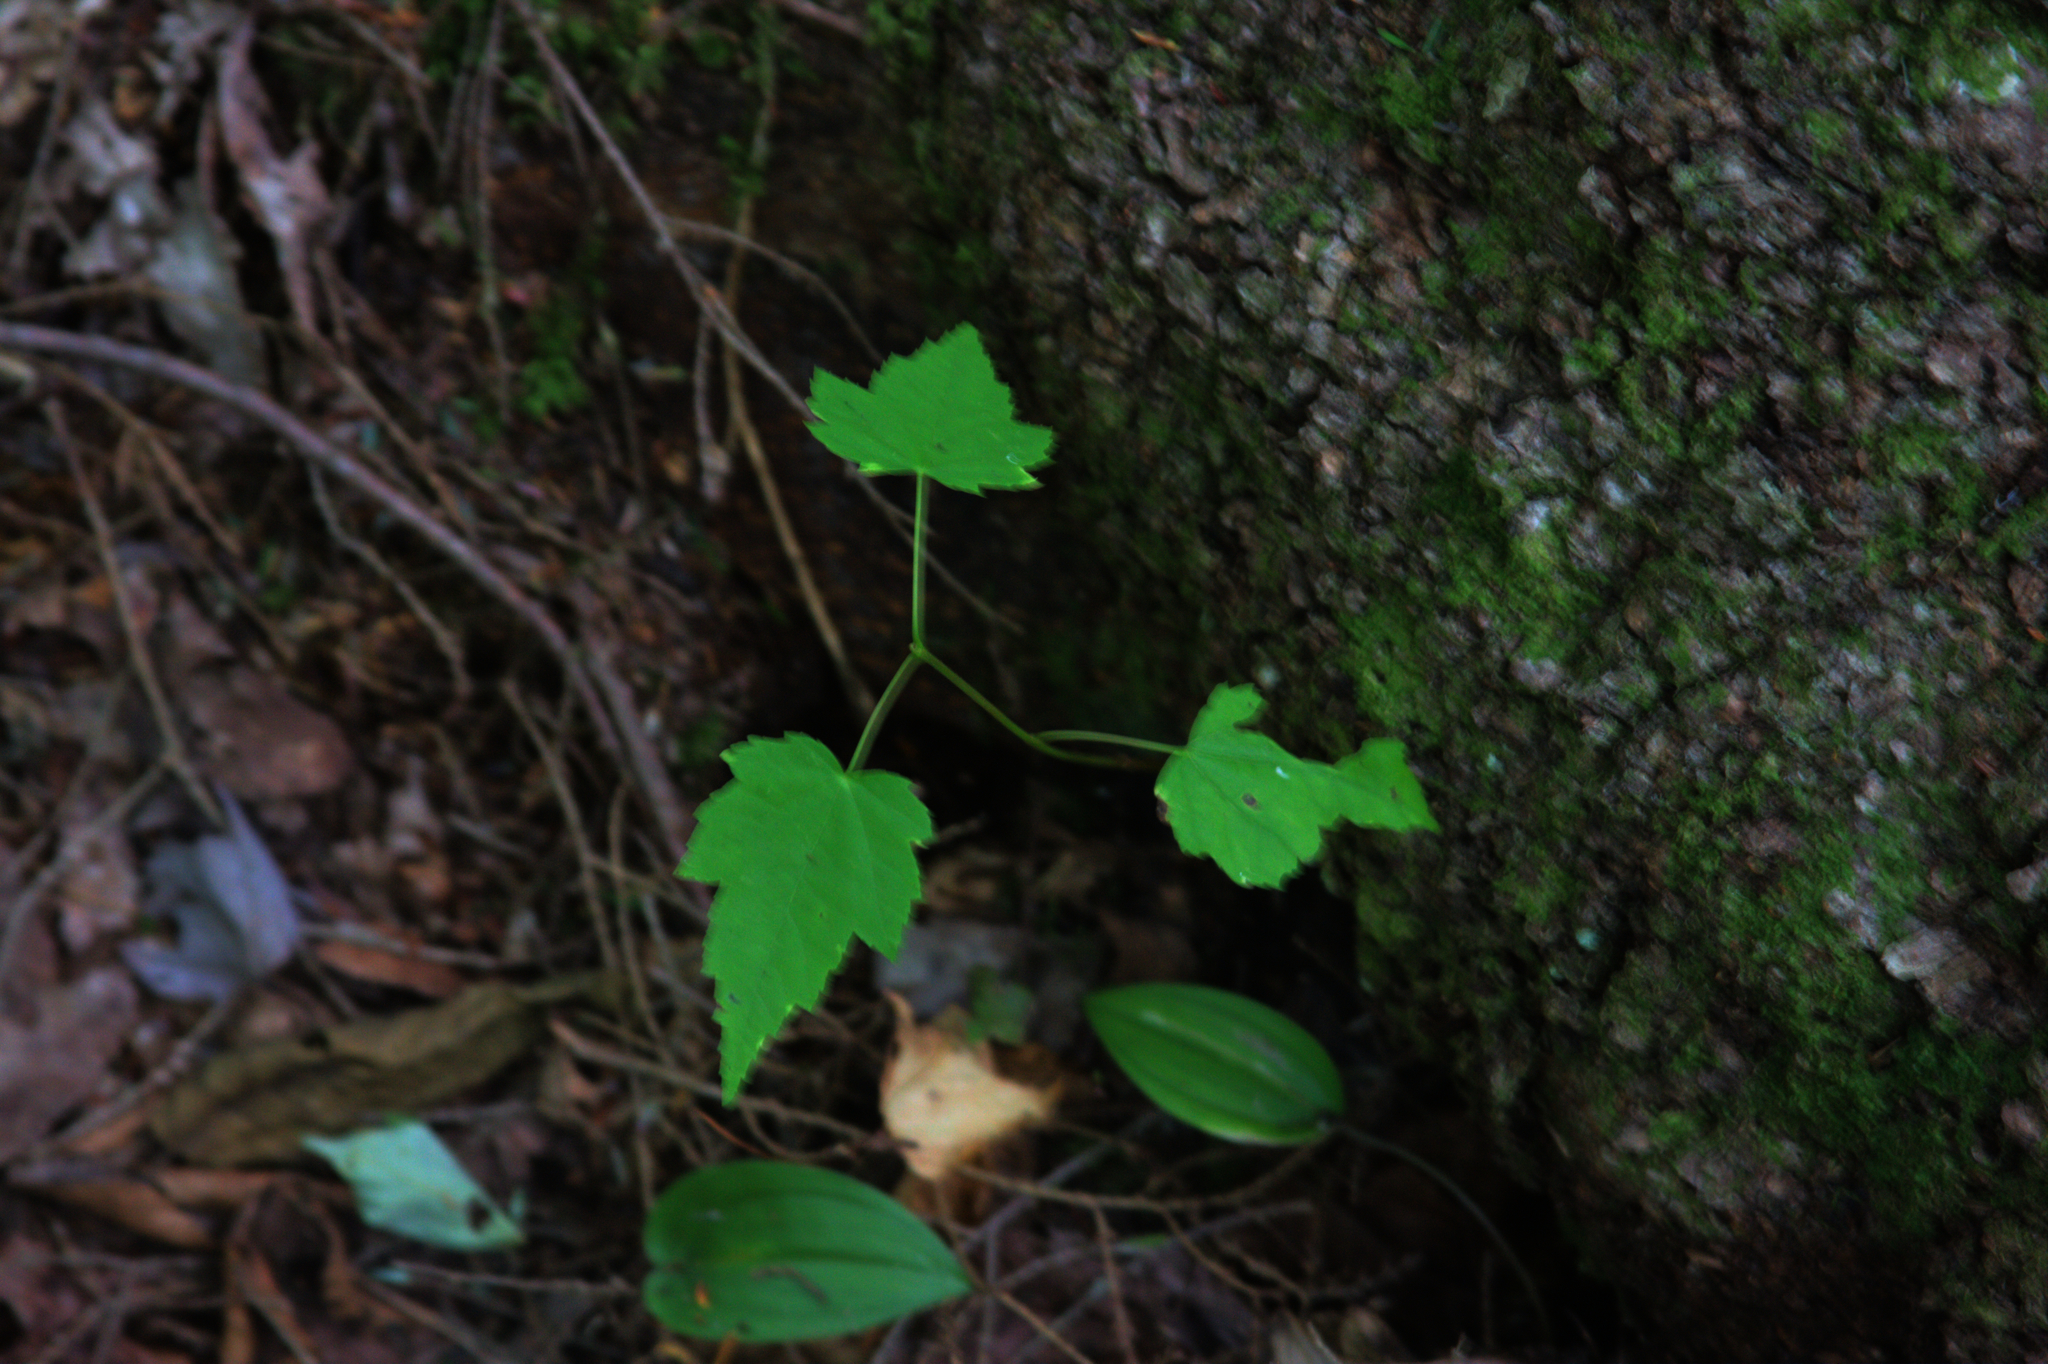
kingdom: Plantae
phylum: Tracheophyta
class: Magnoliopsida
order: Sapindales
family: Sapindaceae
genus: Acer
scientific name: Acer rubrum
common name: Red maple
